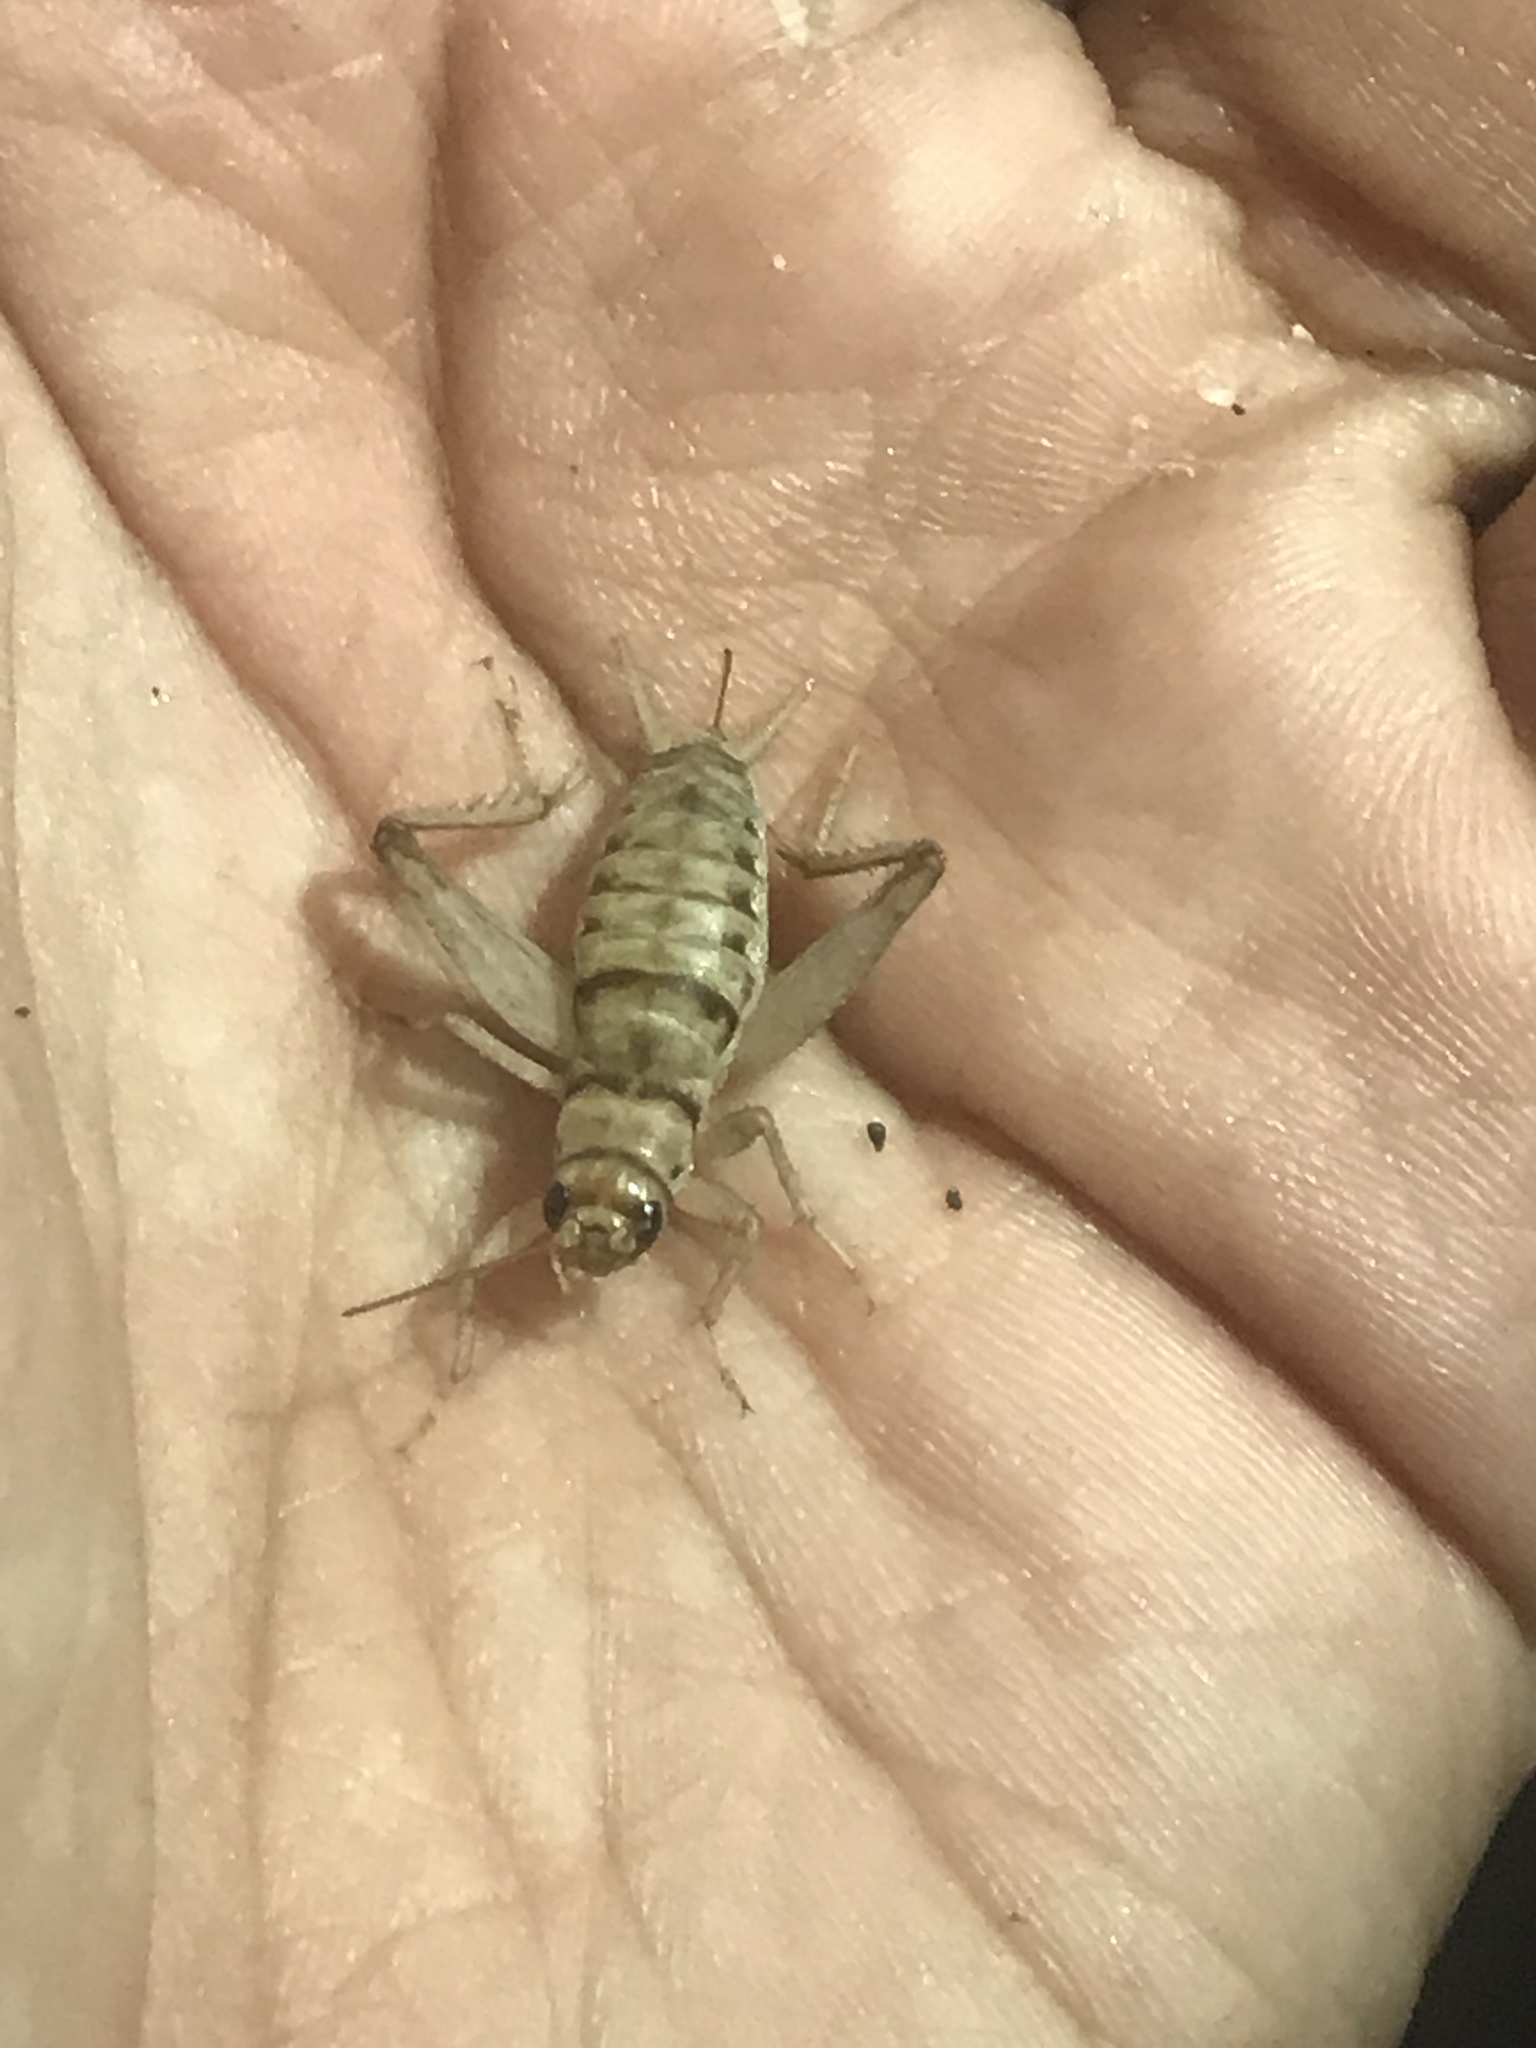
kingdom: Animalia
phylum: Arthropoda
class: Insecta
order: Orthoptera
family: Gryllidae
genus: Gryllodes
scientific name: Gryllodes sigillatus
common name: Tropical house cricket
